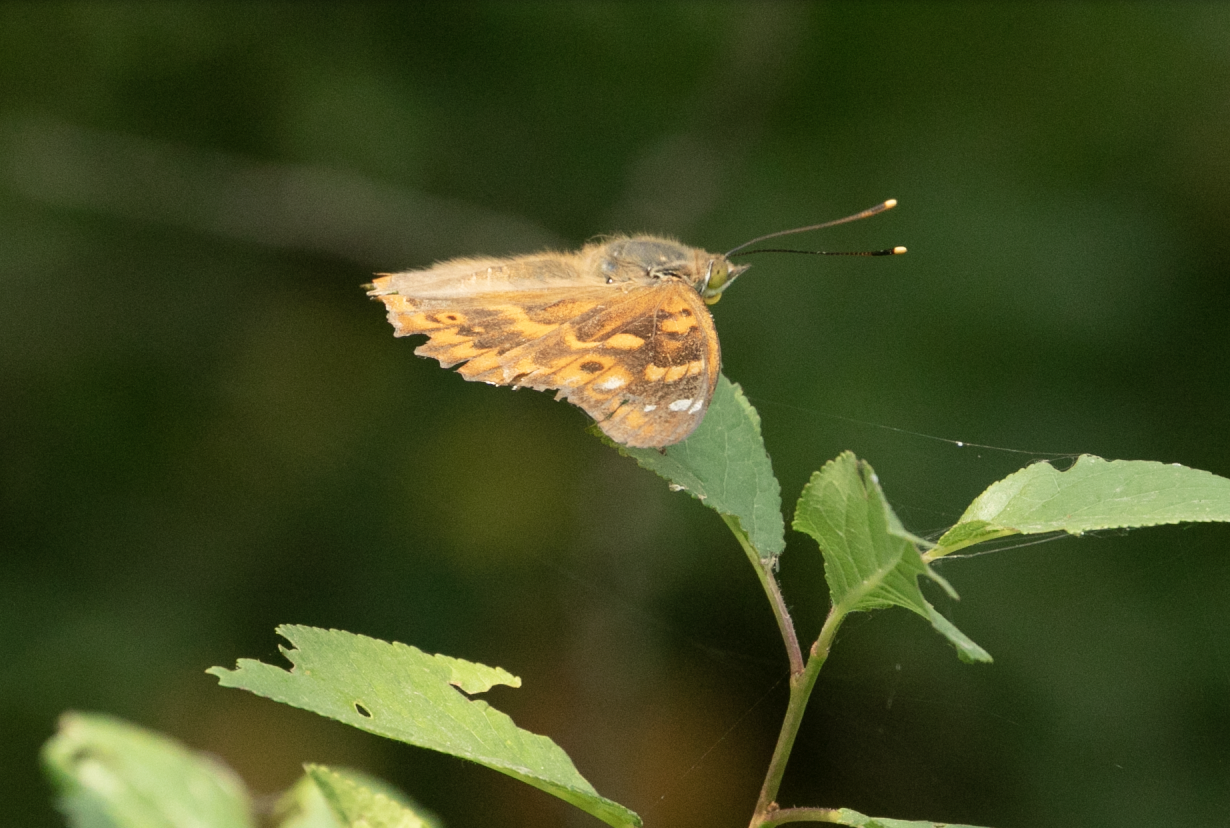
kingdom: Animalia
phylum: Arthropoda
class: Insecta
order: Lepidoptera
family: Nymphalidae
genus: Apatura
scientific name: Apatura ilia
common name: Lesser purple emperor
